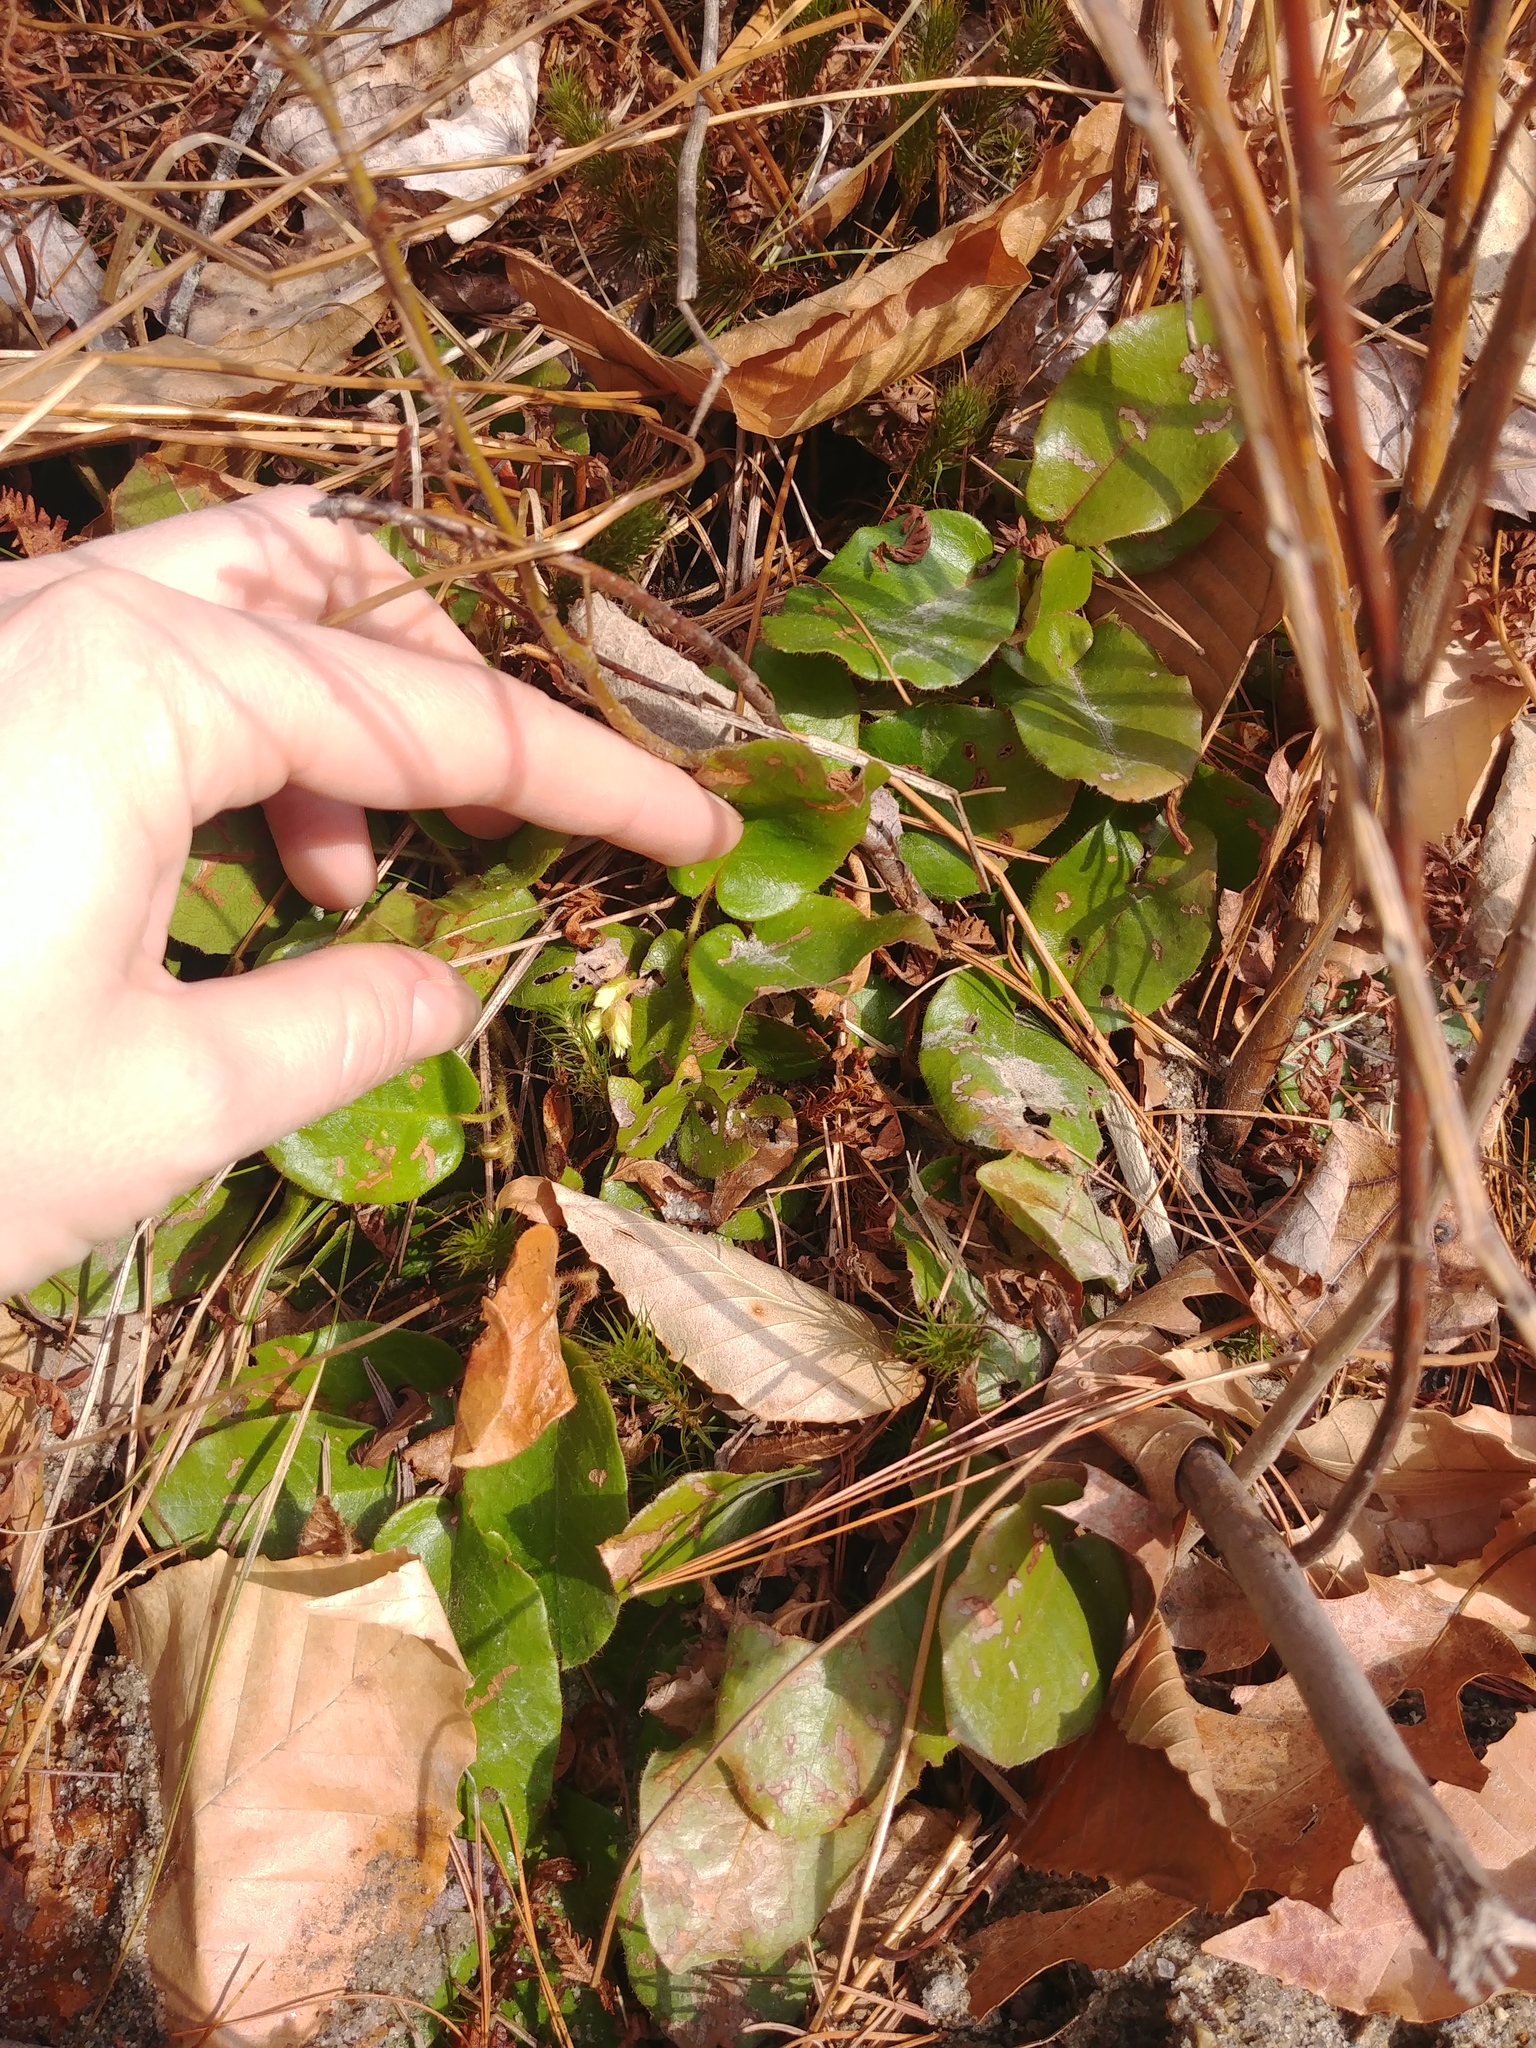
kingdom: Plantae
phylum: Tracheophyta
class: Magnoliopsida
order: Ericales
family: Ericaceae
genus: Epigaea
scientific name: Epigaea repens
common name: Gravelroot
